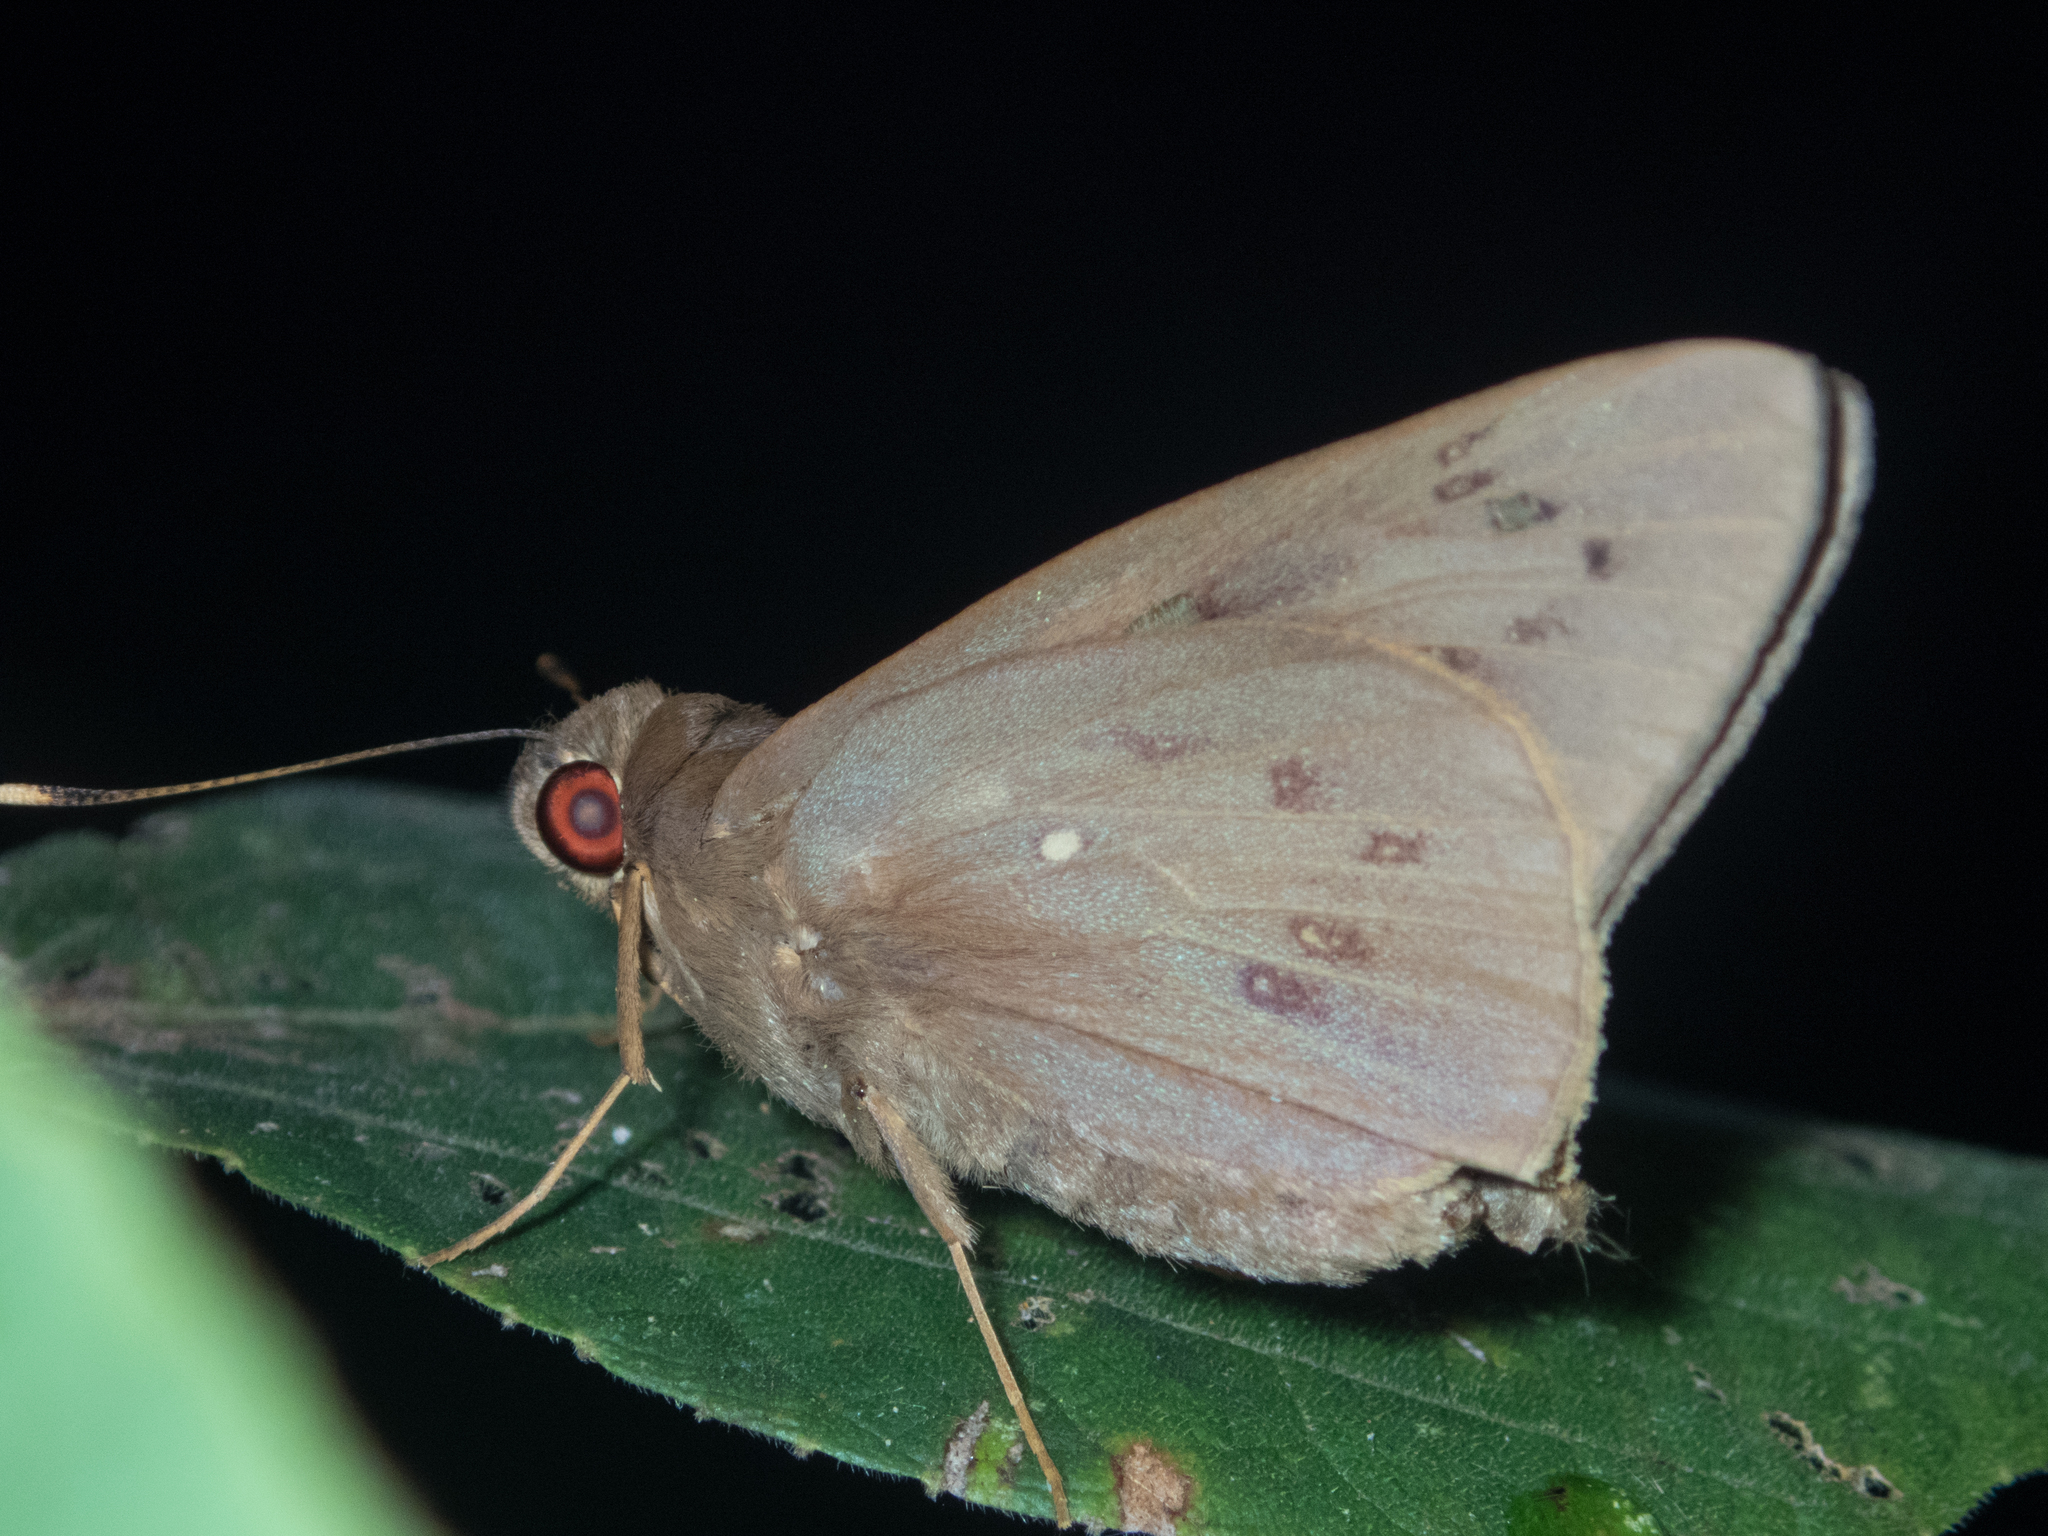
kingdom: Animalia
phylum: Arthropoda
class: Insecta
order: Lepidoptera
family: Hesperiidae
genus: Hidari
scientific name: Hidari irava
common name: Coconut skipper
